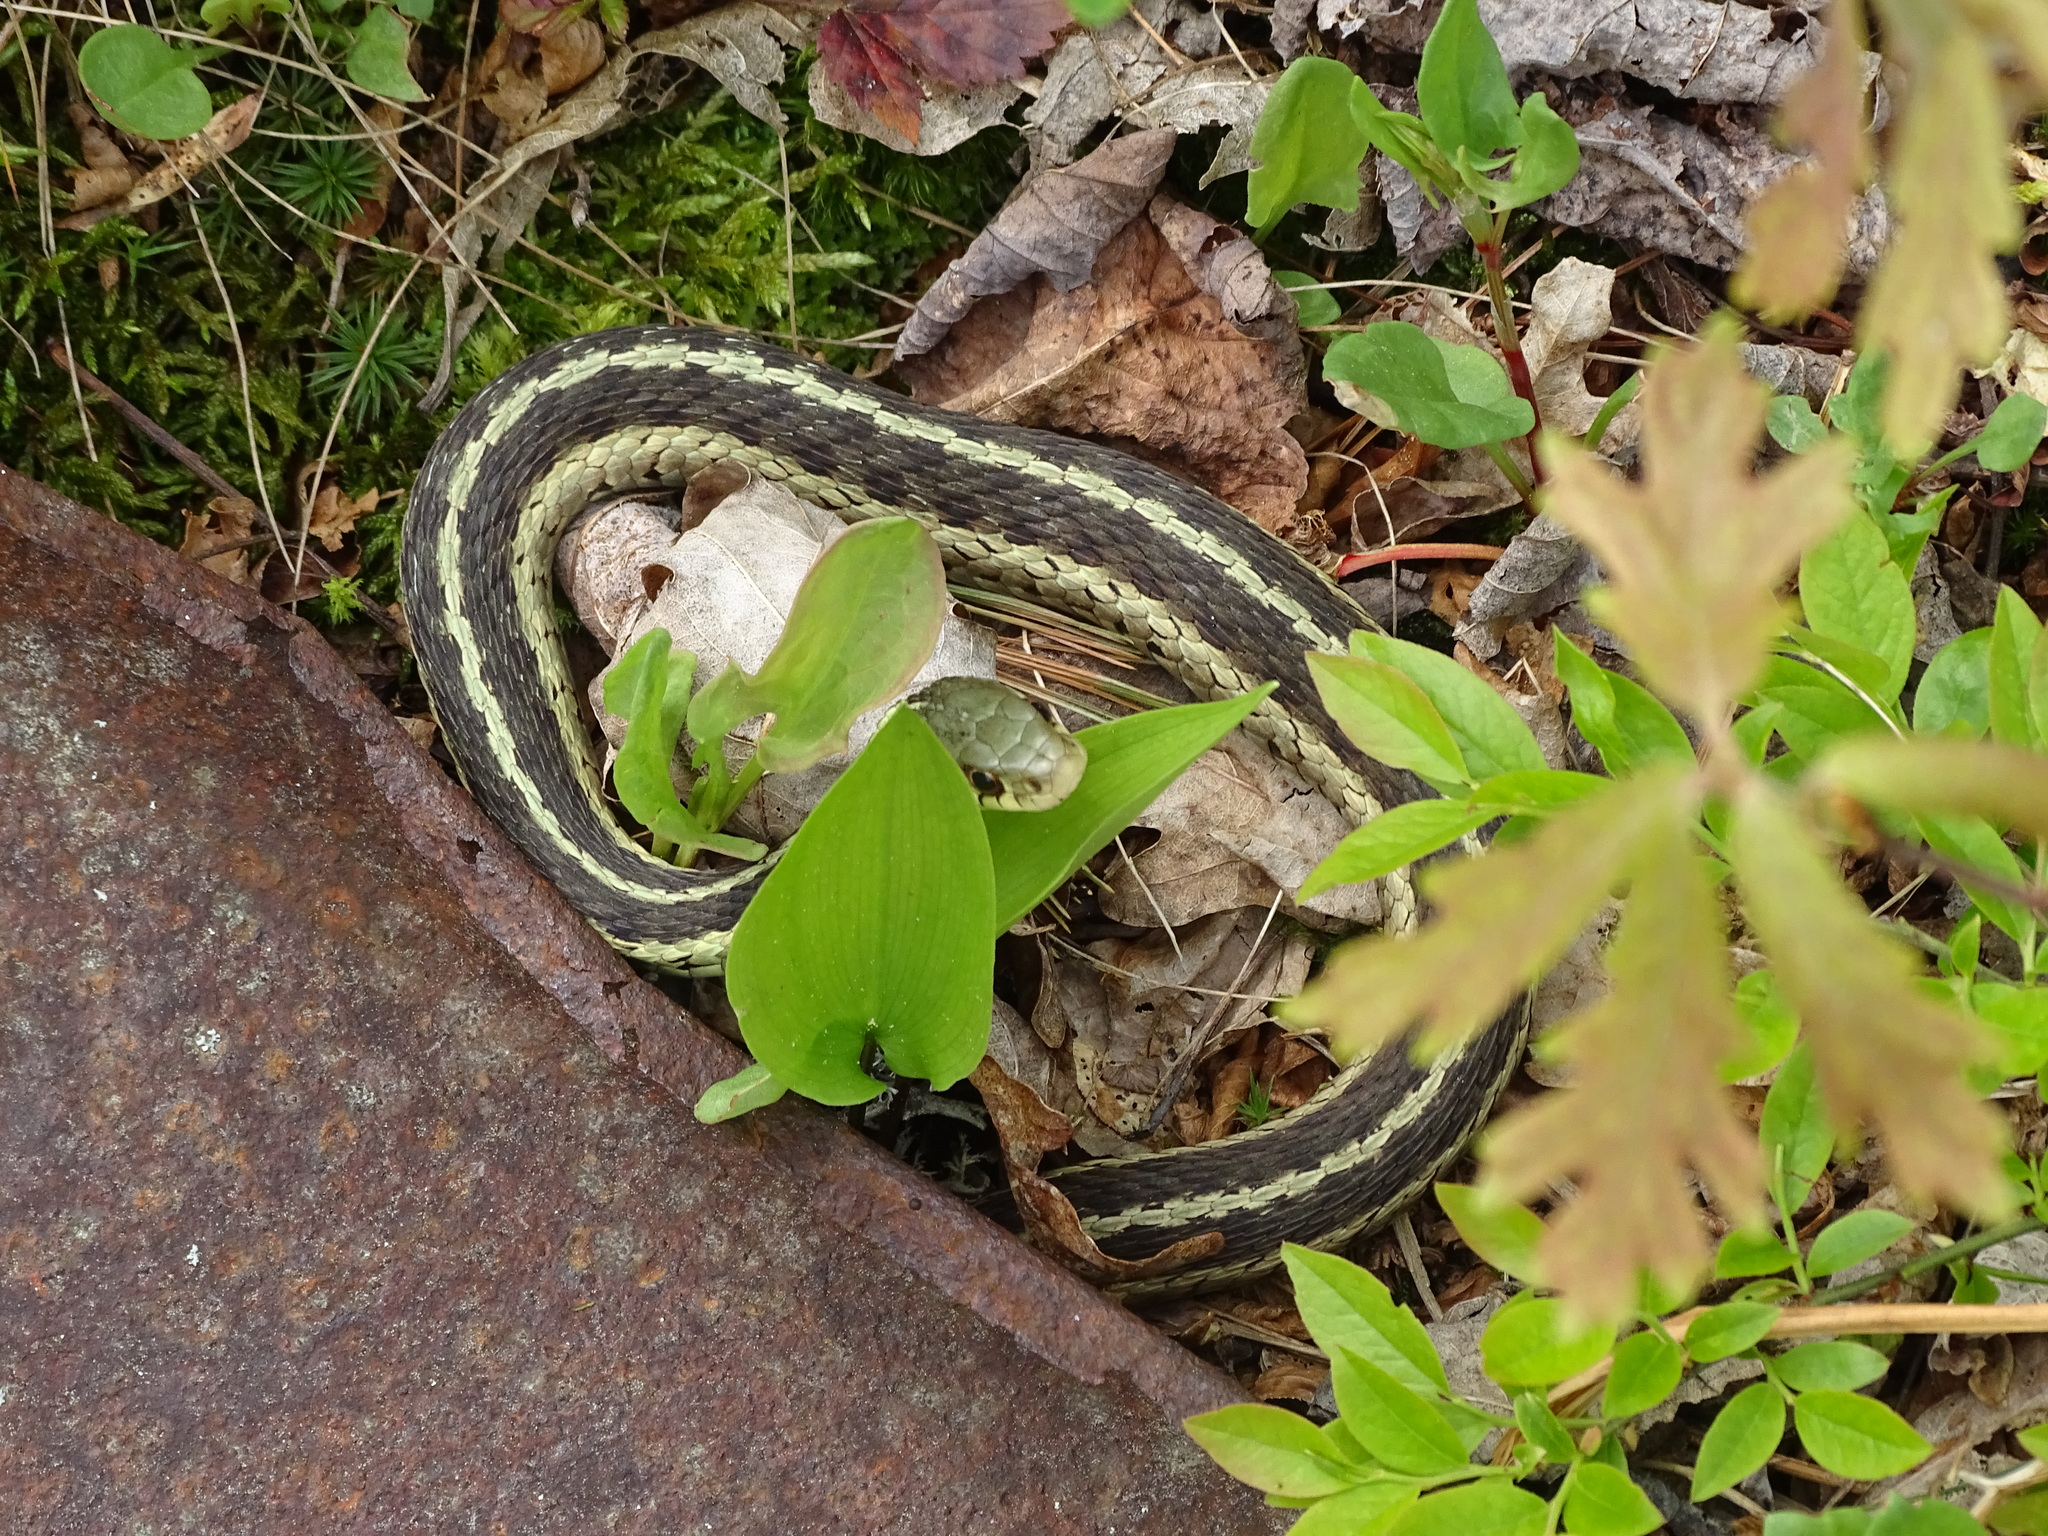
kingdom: Animalia
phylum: Chordata
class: Squamata
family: Colubridae
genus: Thamnophis
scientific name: Thamnophis sirtalis
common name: Common garter snake
